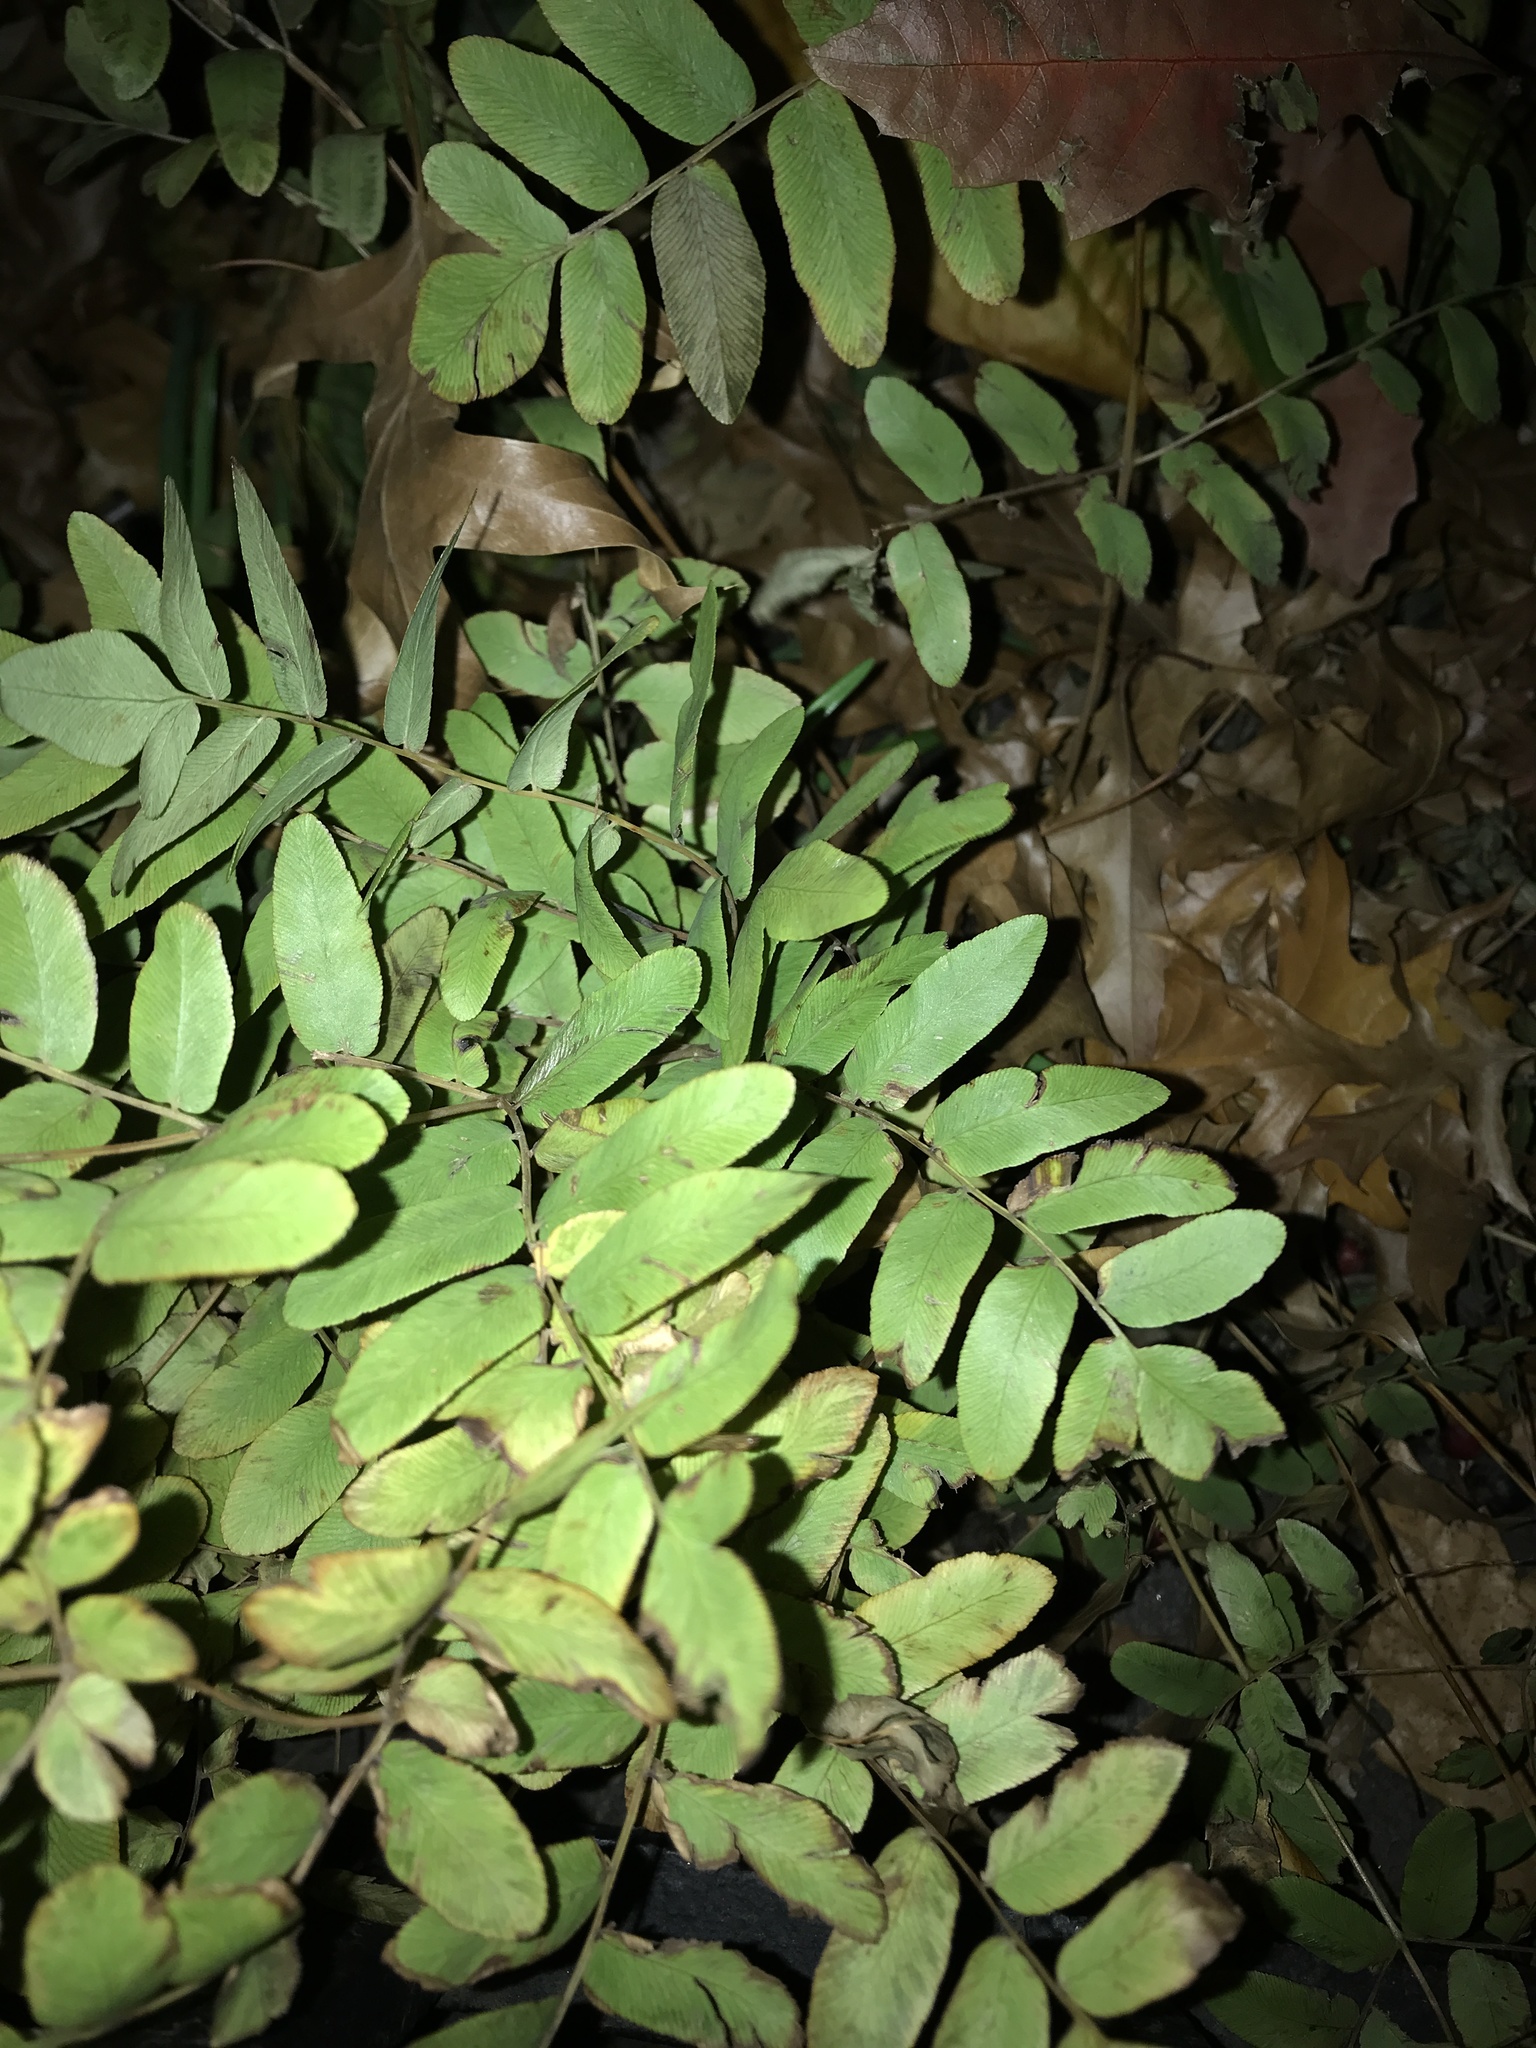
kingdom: Plantae
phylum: Tracheophyta
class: Polypodiopsida
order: Osmundales
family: Osmundaceae
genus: Osmunda
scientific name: Osmunda spectabilis
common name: American royal fern
